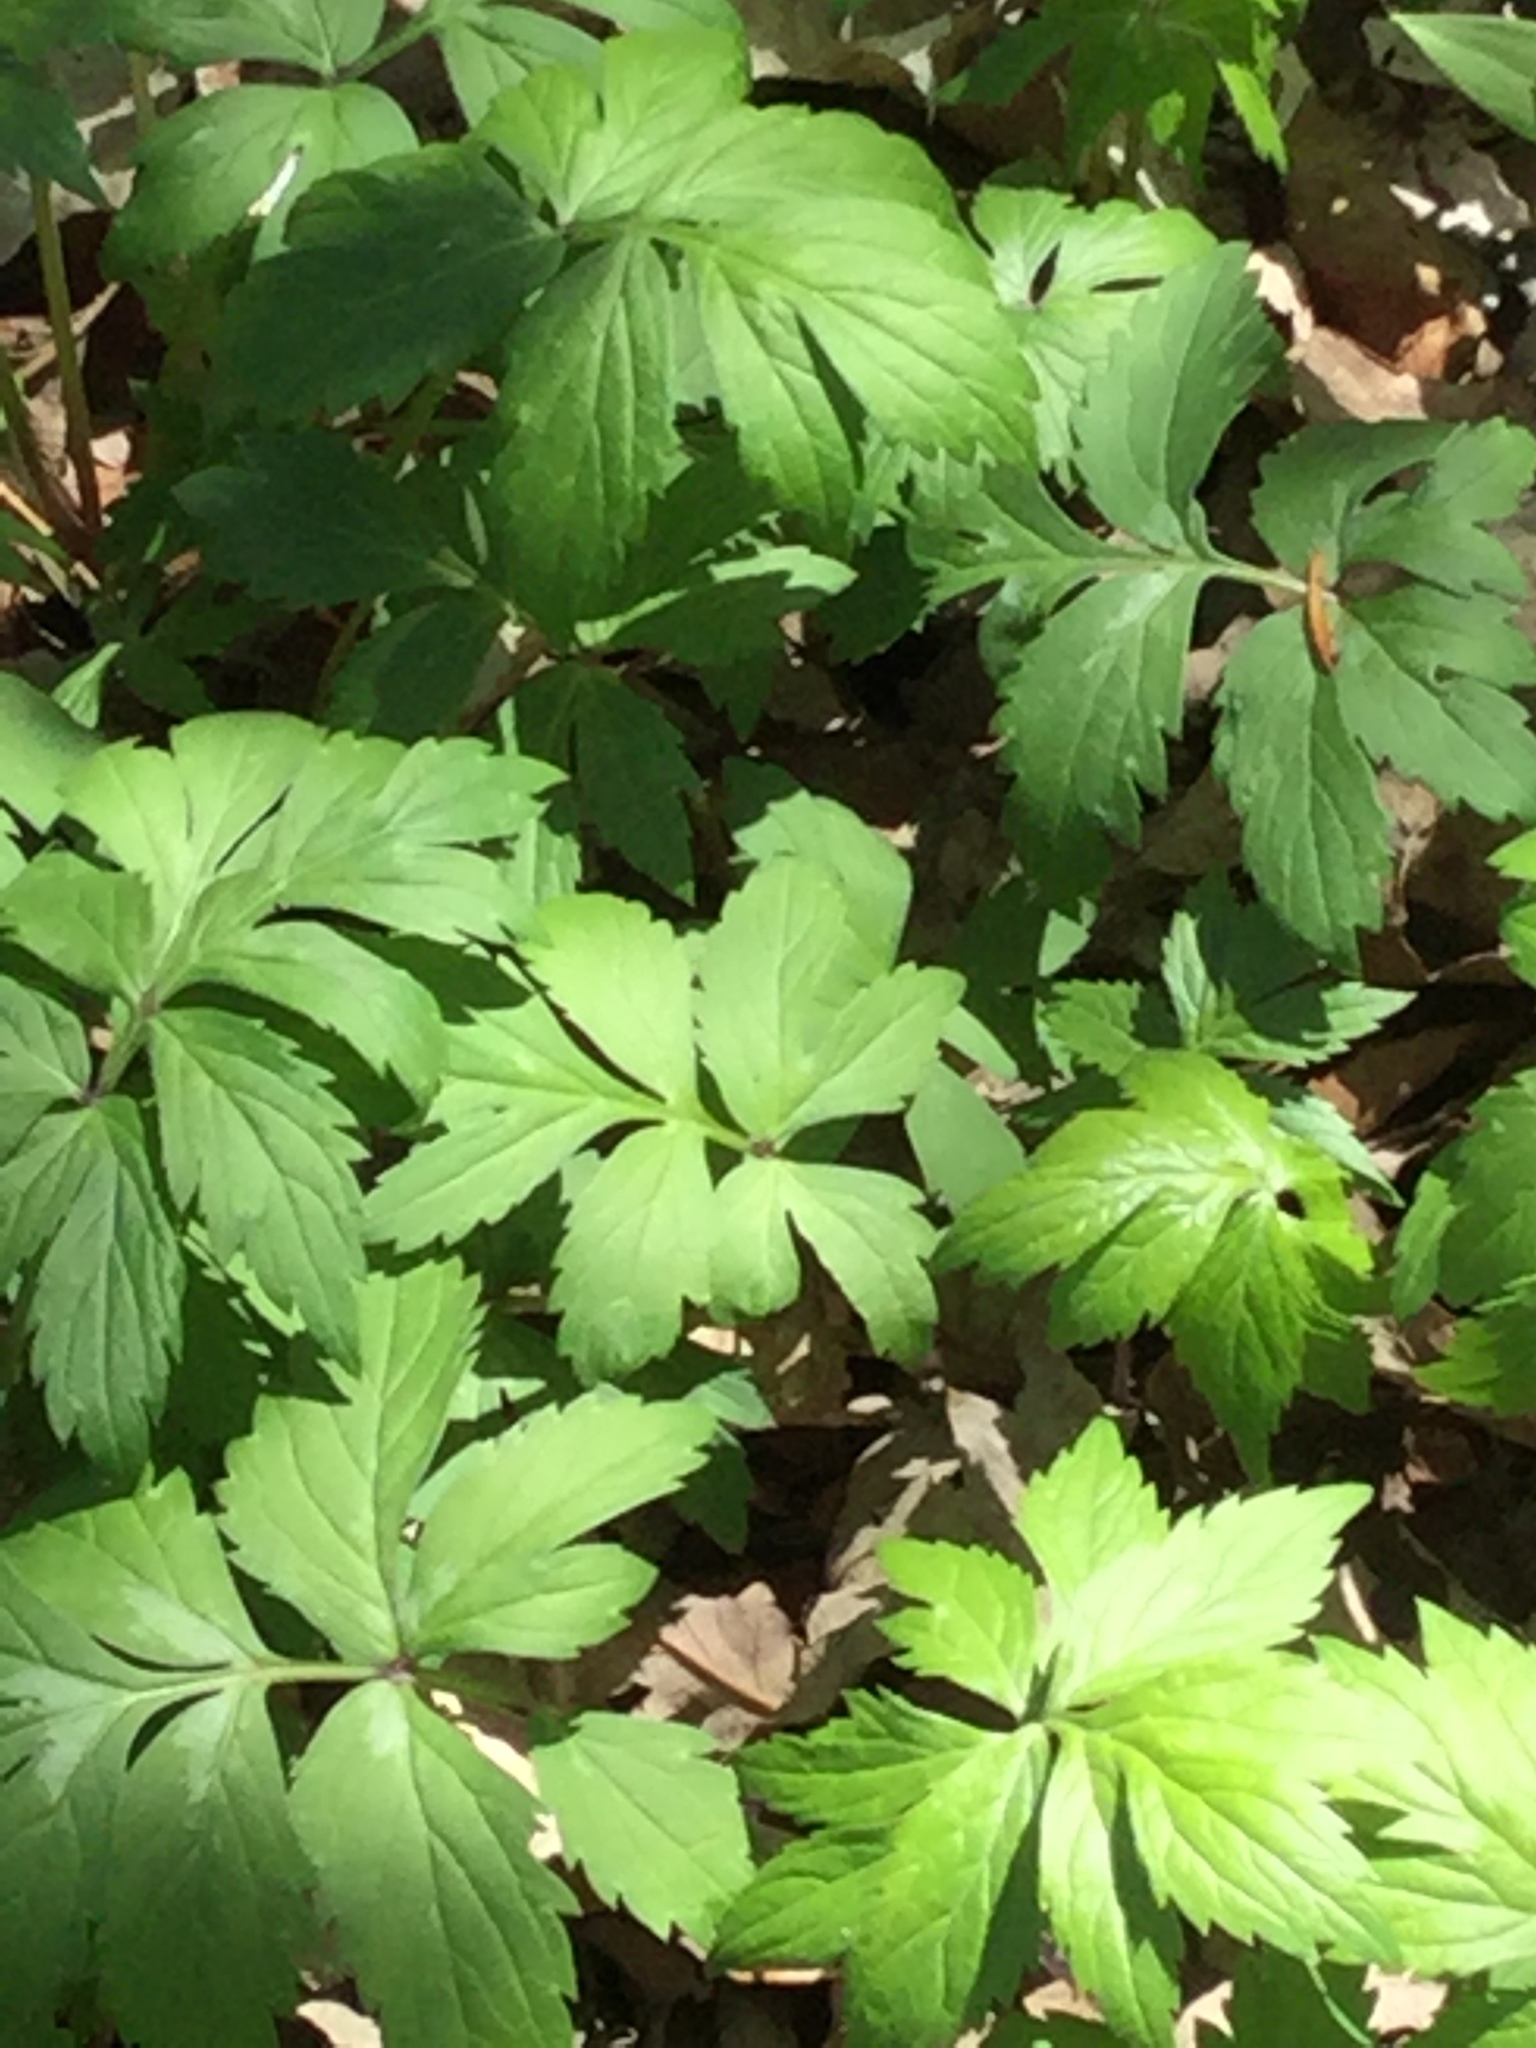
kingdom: Plantae
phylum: Tracheophyta
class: Magnoliopsida
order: Boraginales
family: Hydrophyllaceae
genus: Hydrophyllum
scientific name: Hydrophyllum virginianum
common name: Virginia waterleaf
